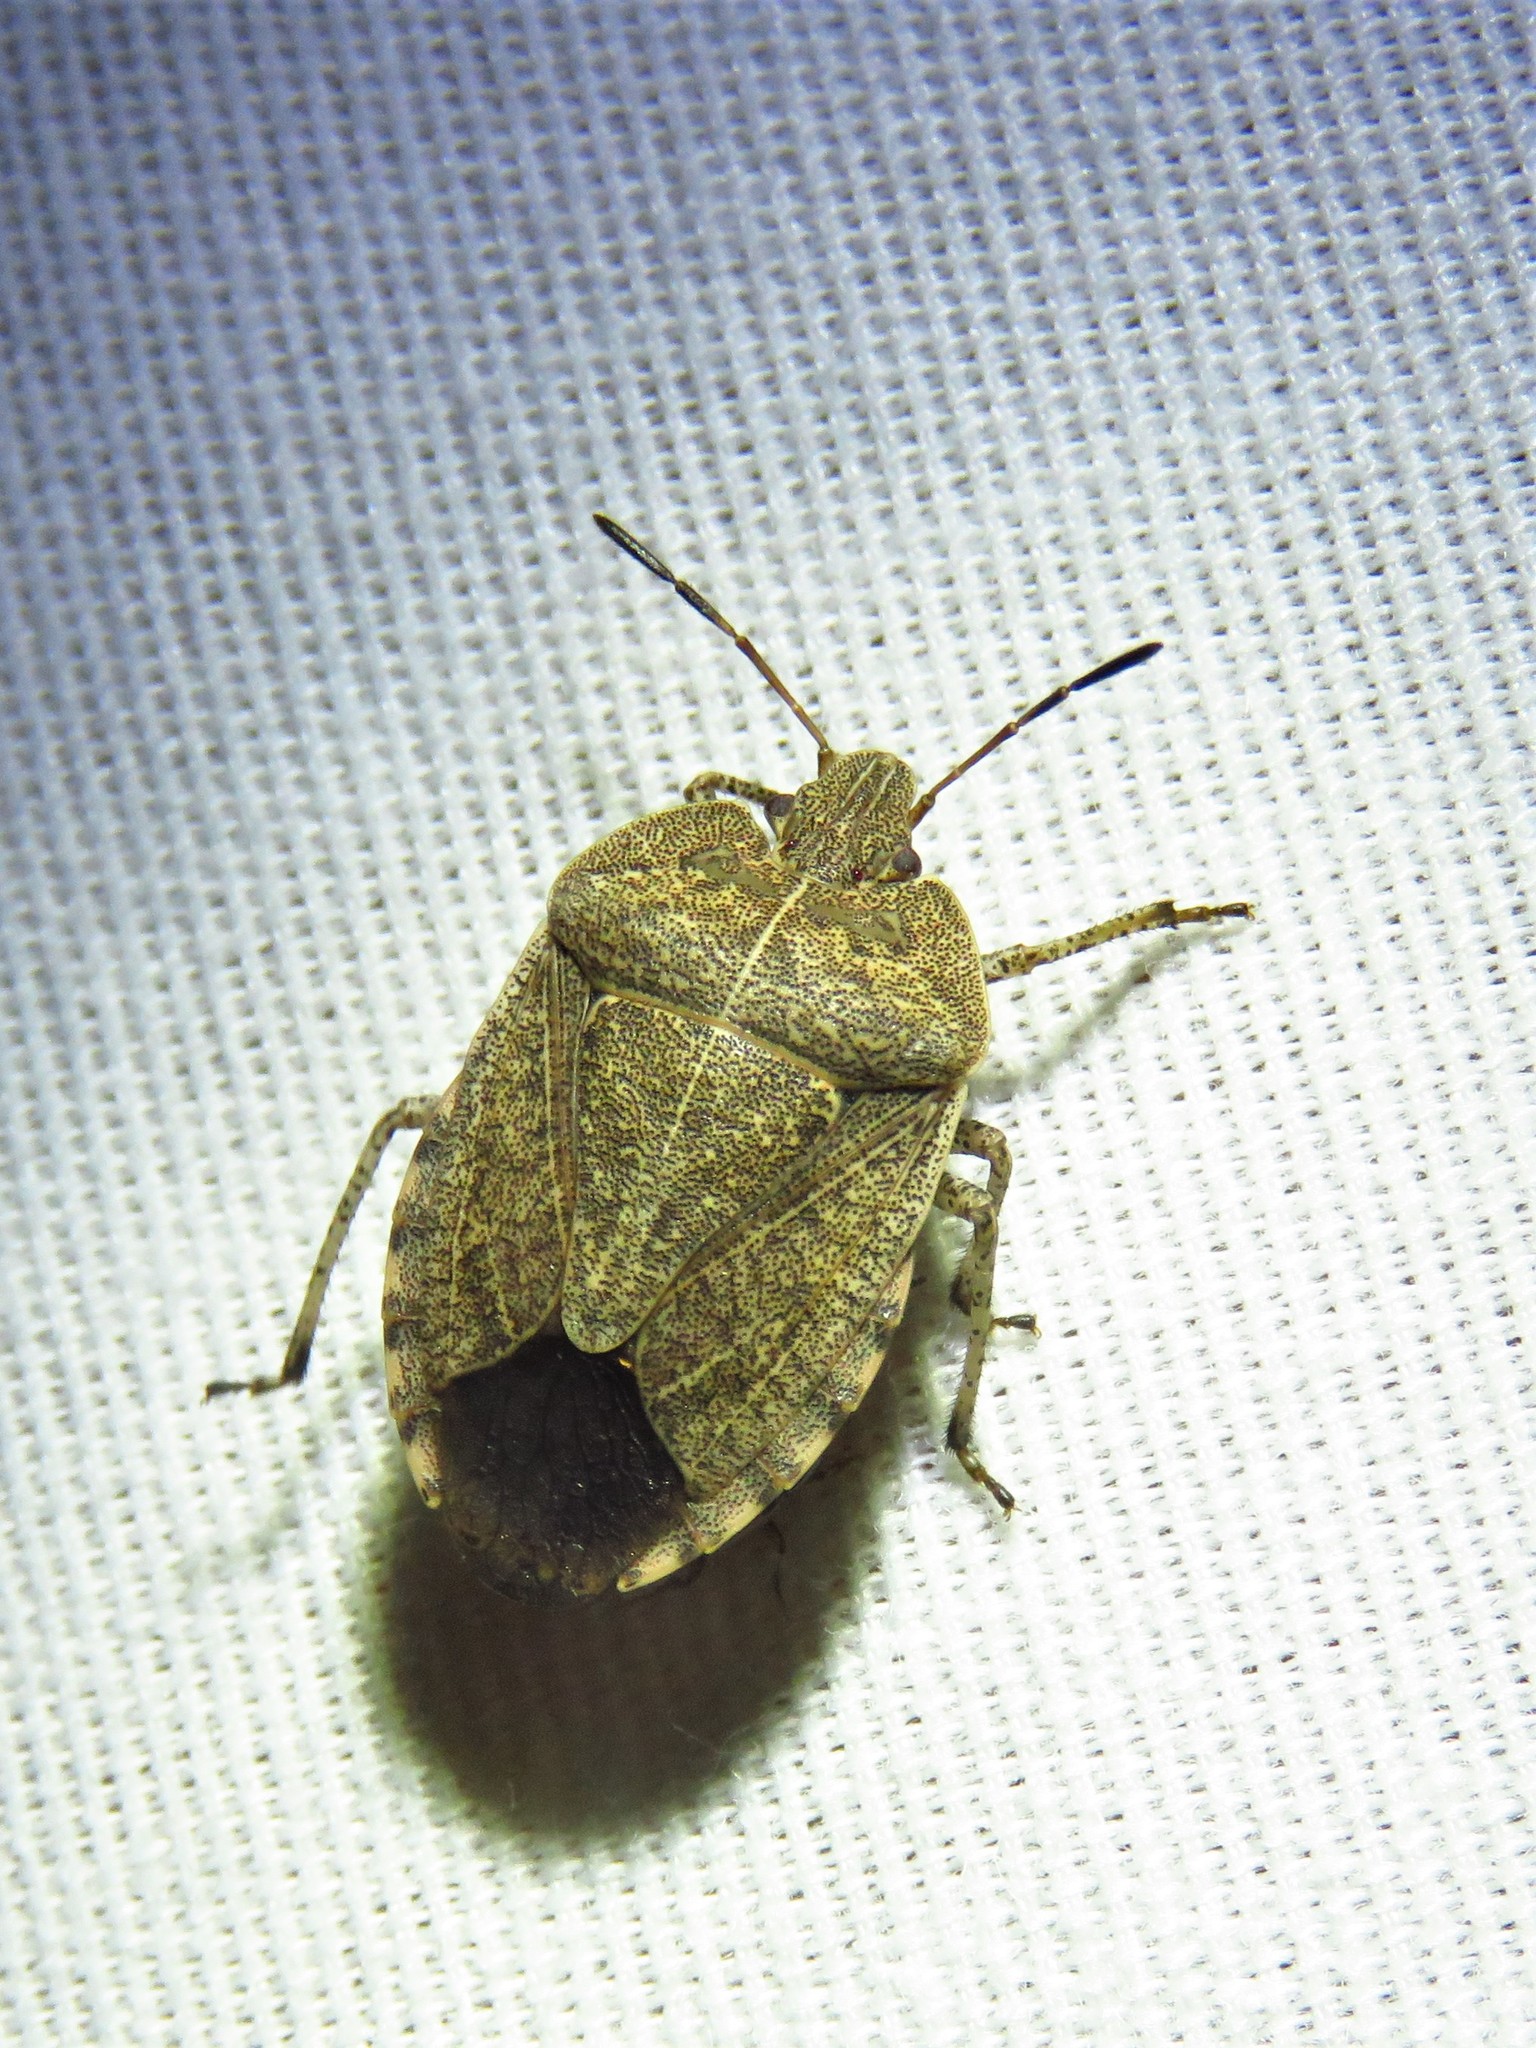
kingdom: Animalia
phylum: Arthropoda
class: Insecta
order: Hemiptera
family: Pentatomidae
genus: Menecles
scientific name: Menecles insertus
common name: Elf shoe stink bug
